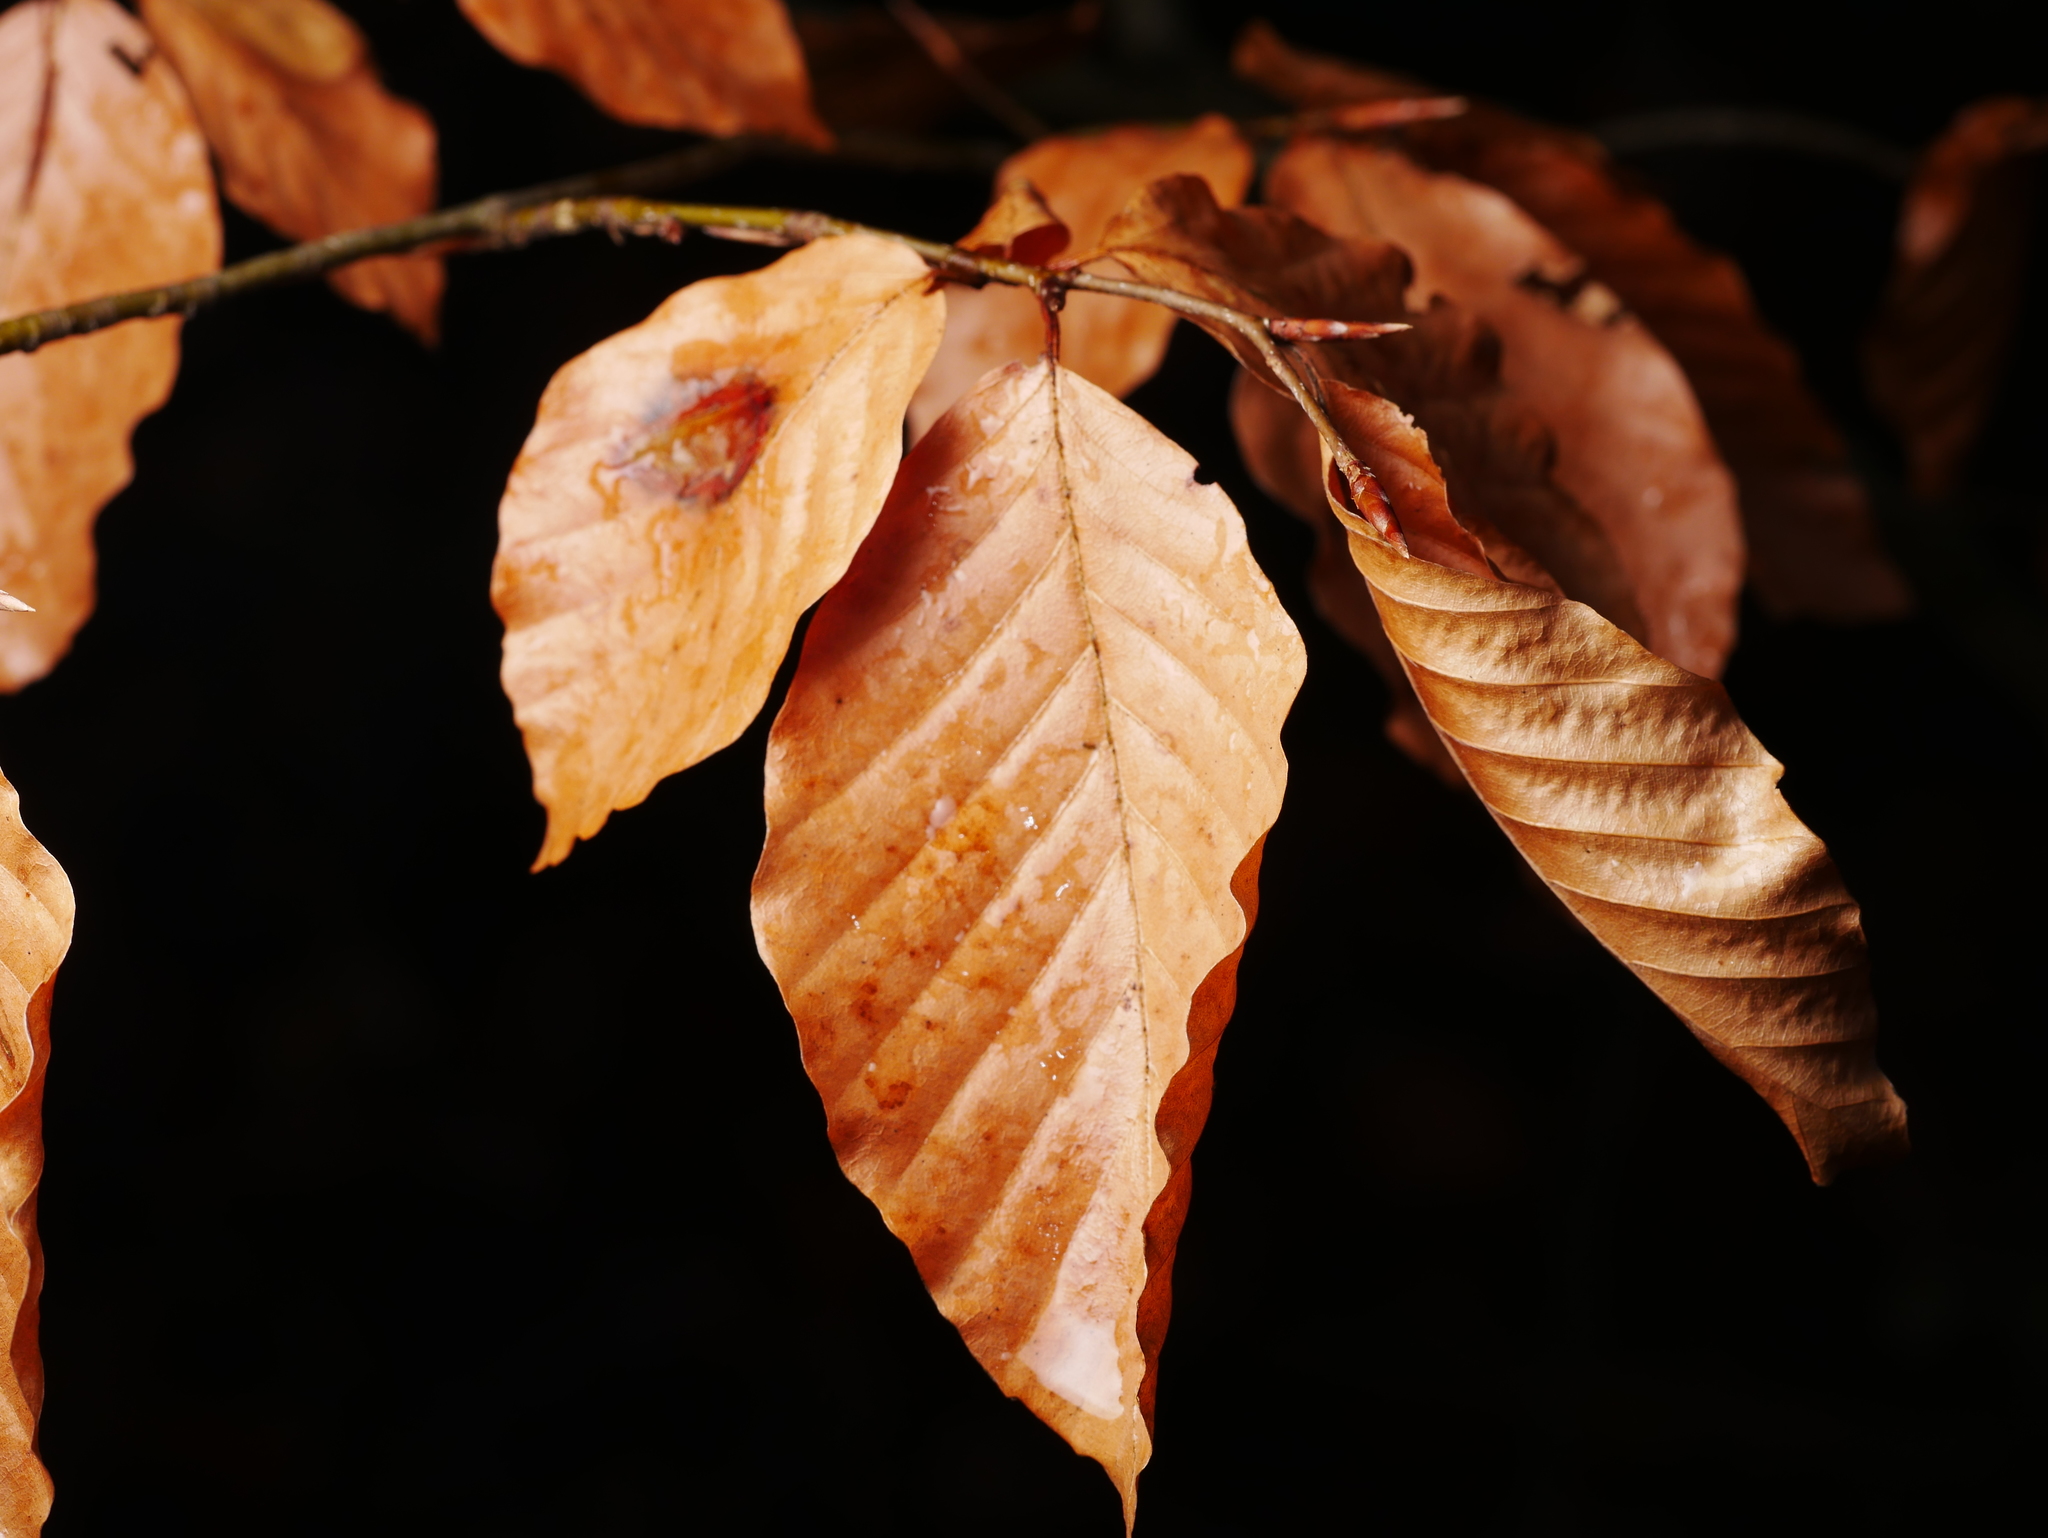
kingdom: Plantae
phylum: Tracheophyta
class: Magnoliopsida
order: Fagales
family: Fagaceae
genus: Fagus
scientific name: Fagus sylvatica
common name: Beech
